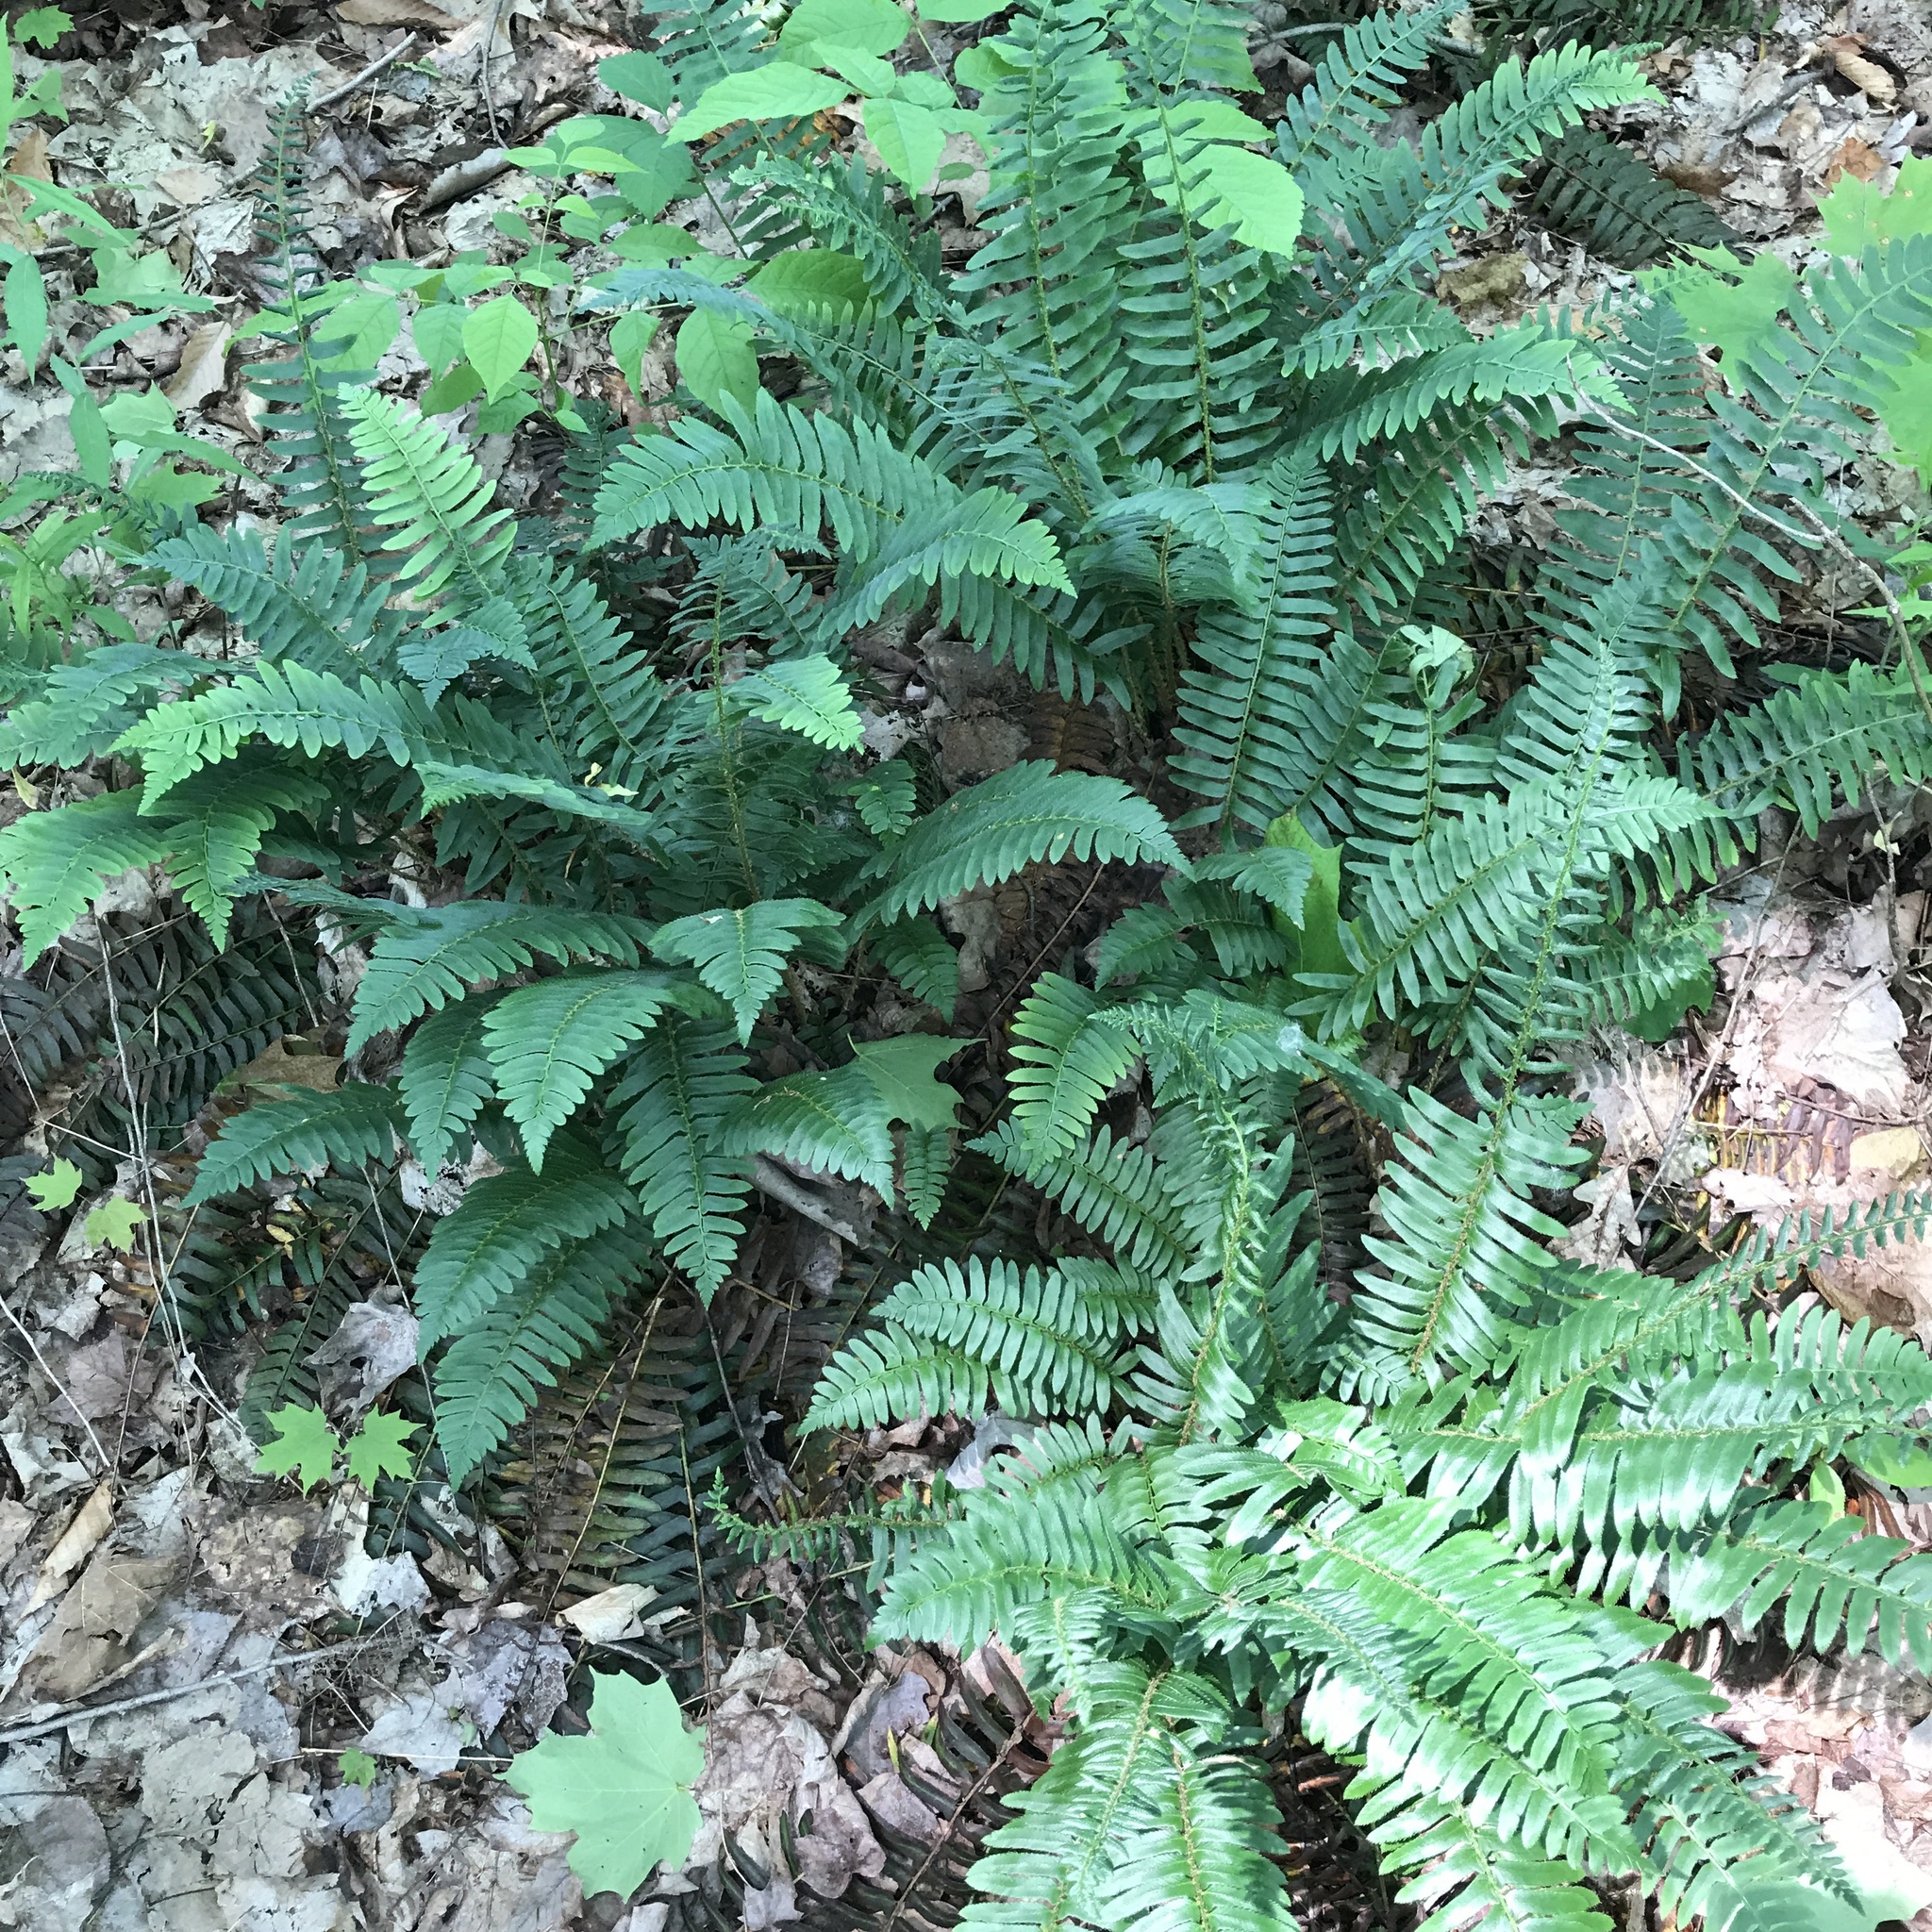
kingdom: Plantae
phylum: Tracheophyta
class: Polypodiopsida
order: Polypodiales
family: Dryopteridaceae
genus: Polystichum
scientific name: Polystichum acrostichoides
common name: Christmas fern
